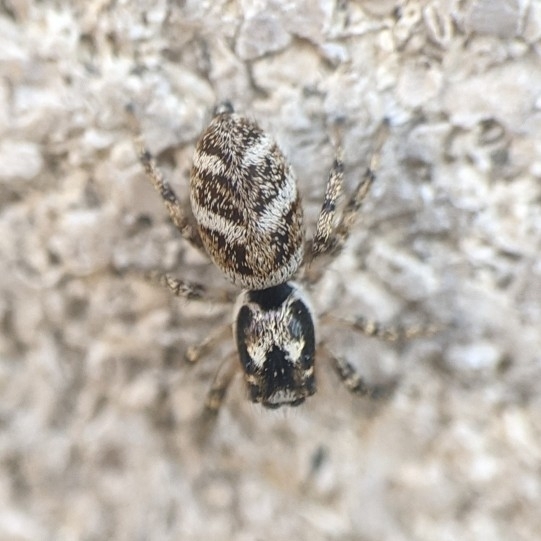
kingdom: Animalia
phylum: Arthropoda
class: Arachnida
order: Araneae
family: Salticidae
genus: Salticus
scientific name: Salticus scenicus
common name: Zebra jumper
